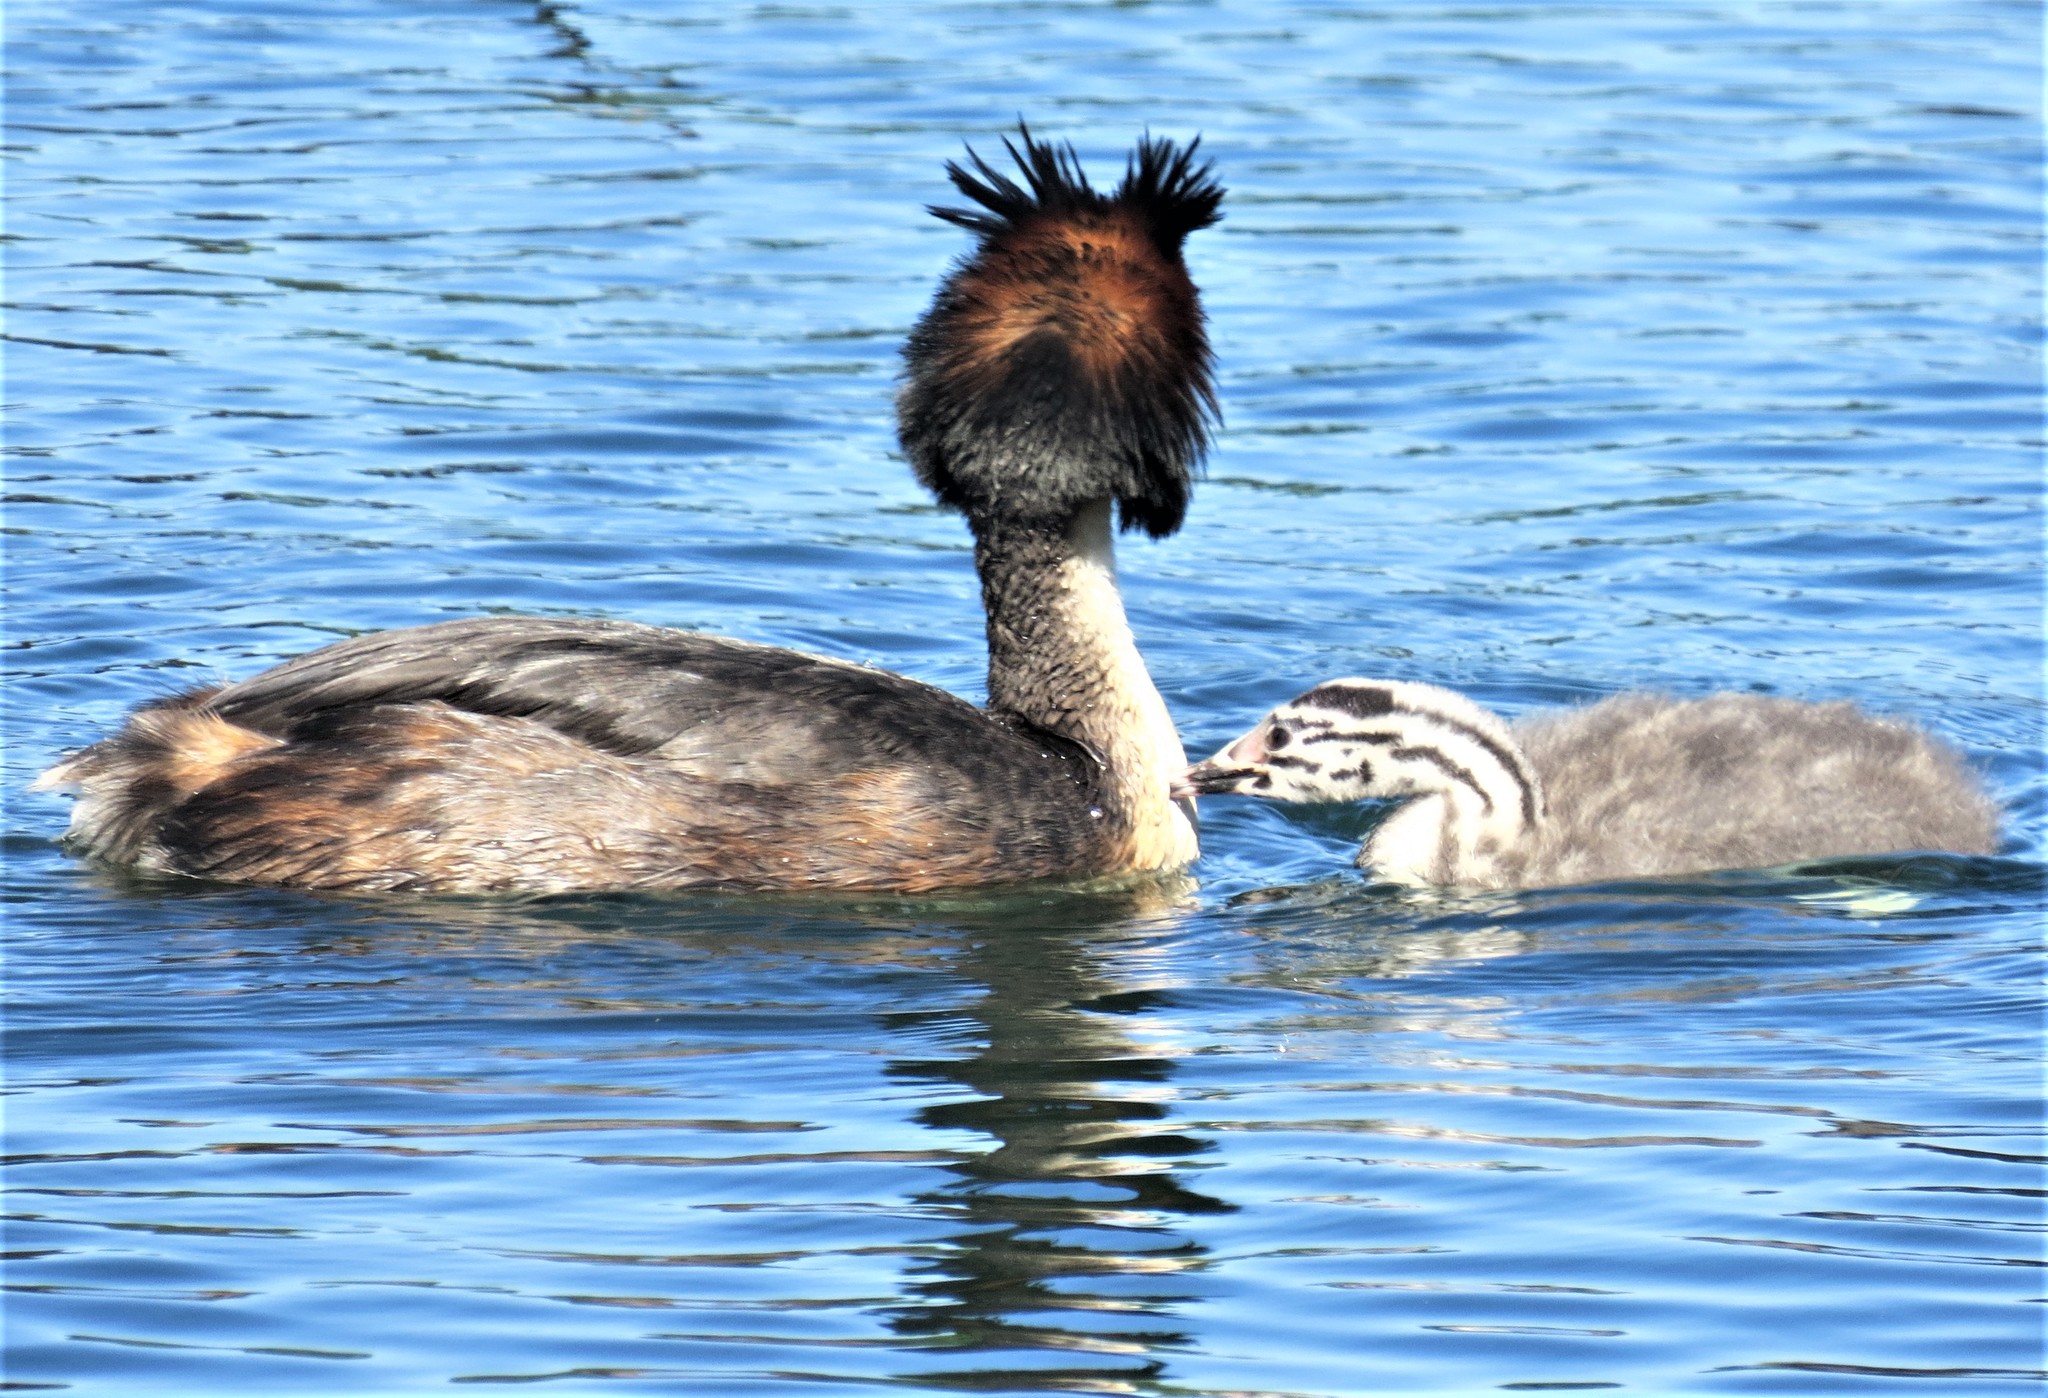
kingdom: Animalia
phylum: Chordata
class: Aves
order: Podicipediformes
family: Podicipedidae
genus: Podiceps
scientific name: Podiceps cristatus
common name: Great crested grebe
